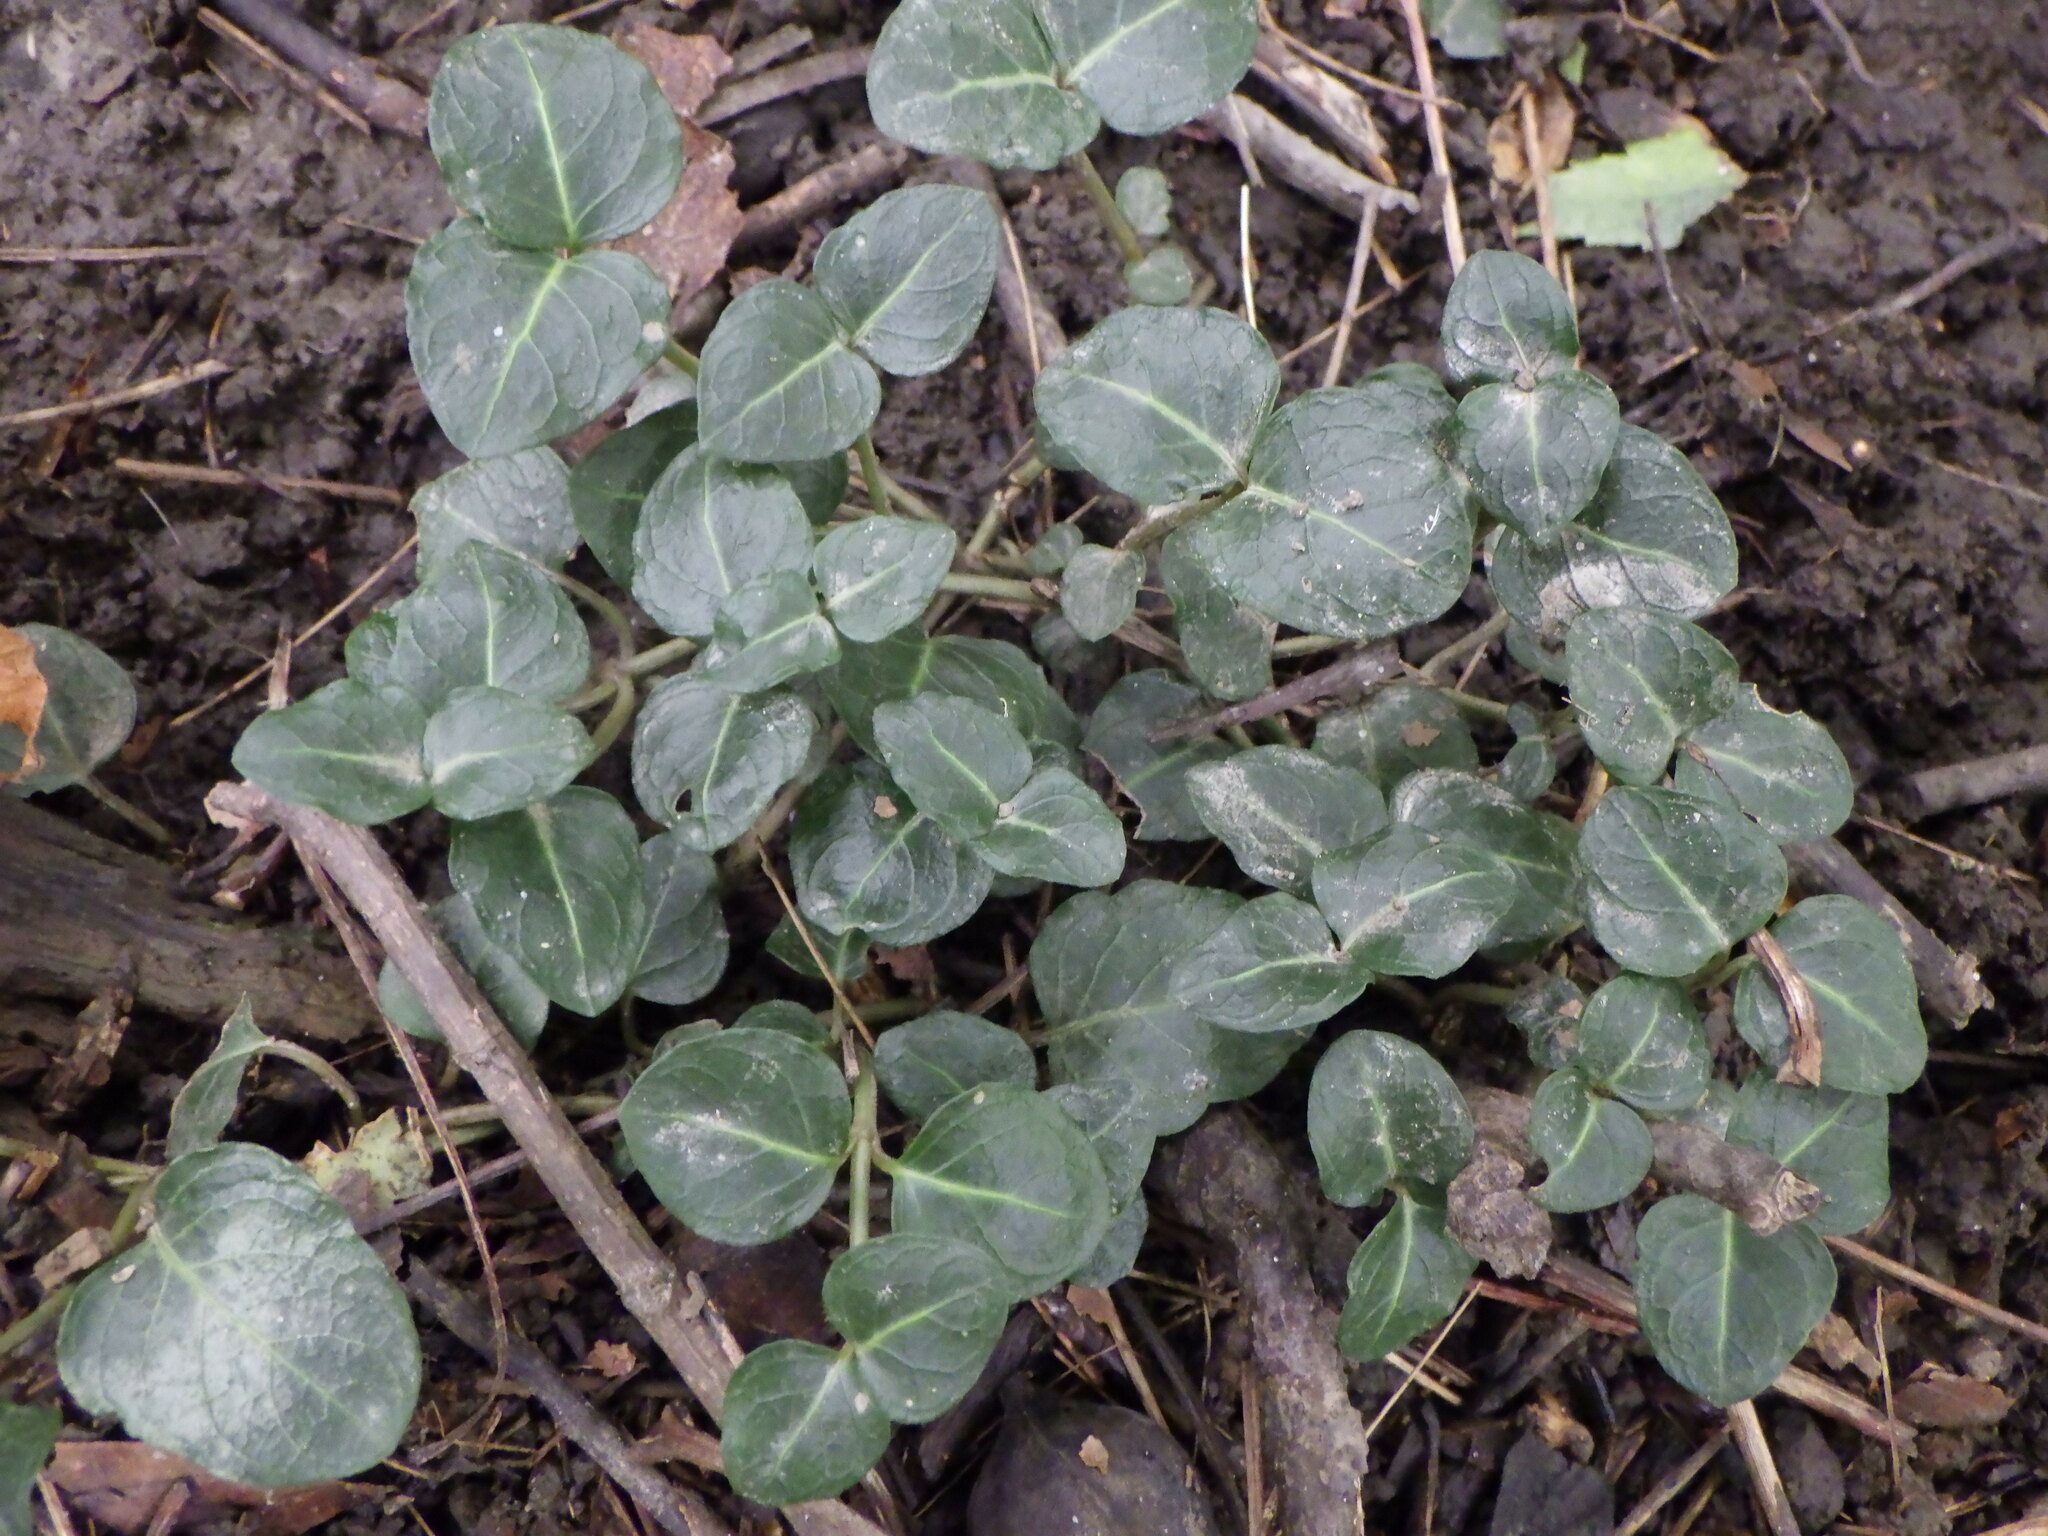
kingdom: Plantae
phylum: Tracheophyta
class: Magnoliopsida
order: Gentianales
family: Rubiaceae
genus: Mitchella
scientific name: Mitchella repens
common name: Partridge-berry
